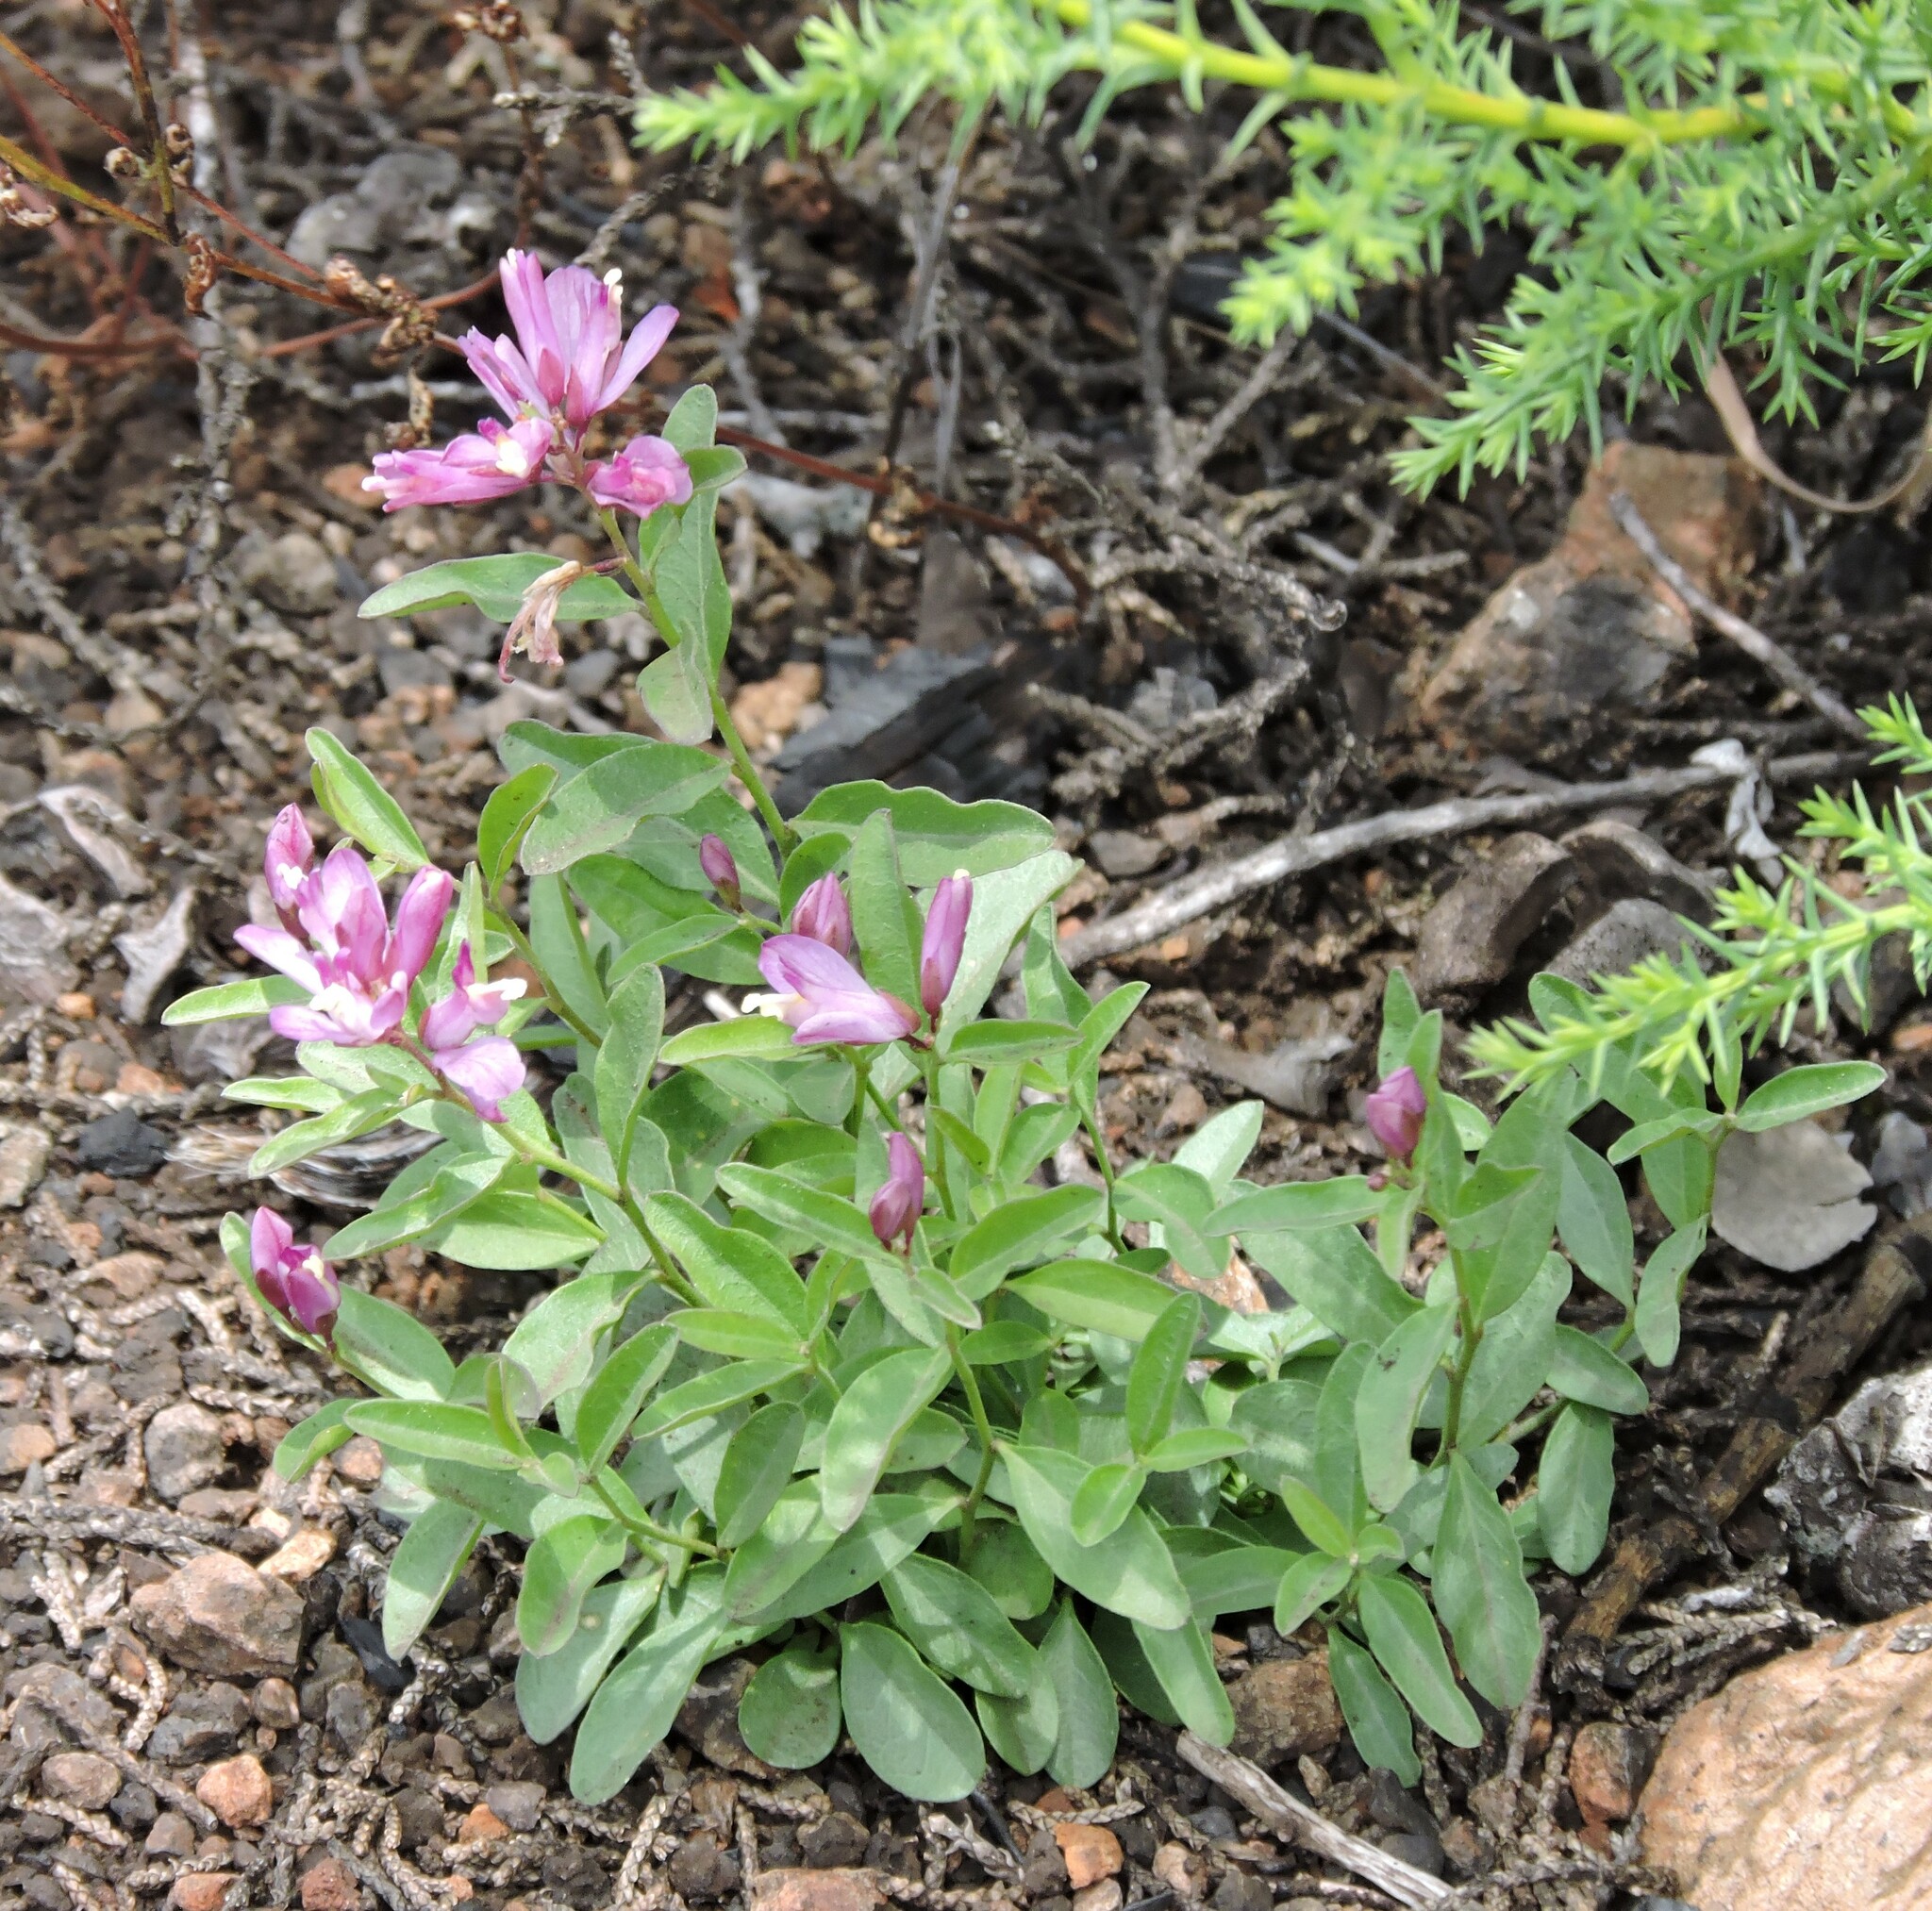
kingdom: Plantae
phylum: Tracheophyta
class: Magnoliopsida
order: Fabales
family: Polygalaceae
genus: Rhinotropis
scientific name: Rhinotropis californica
